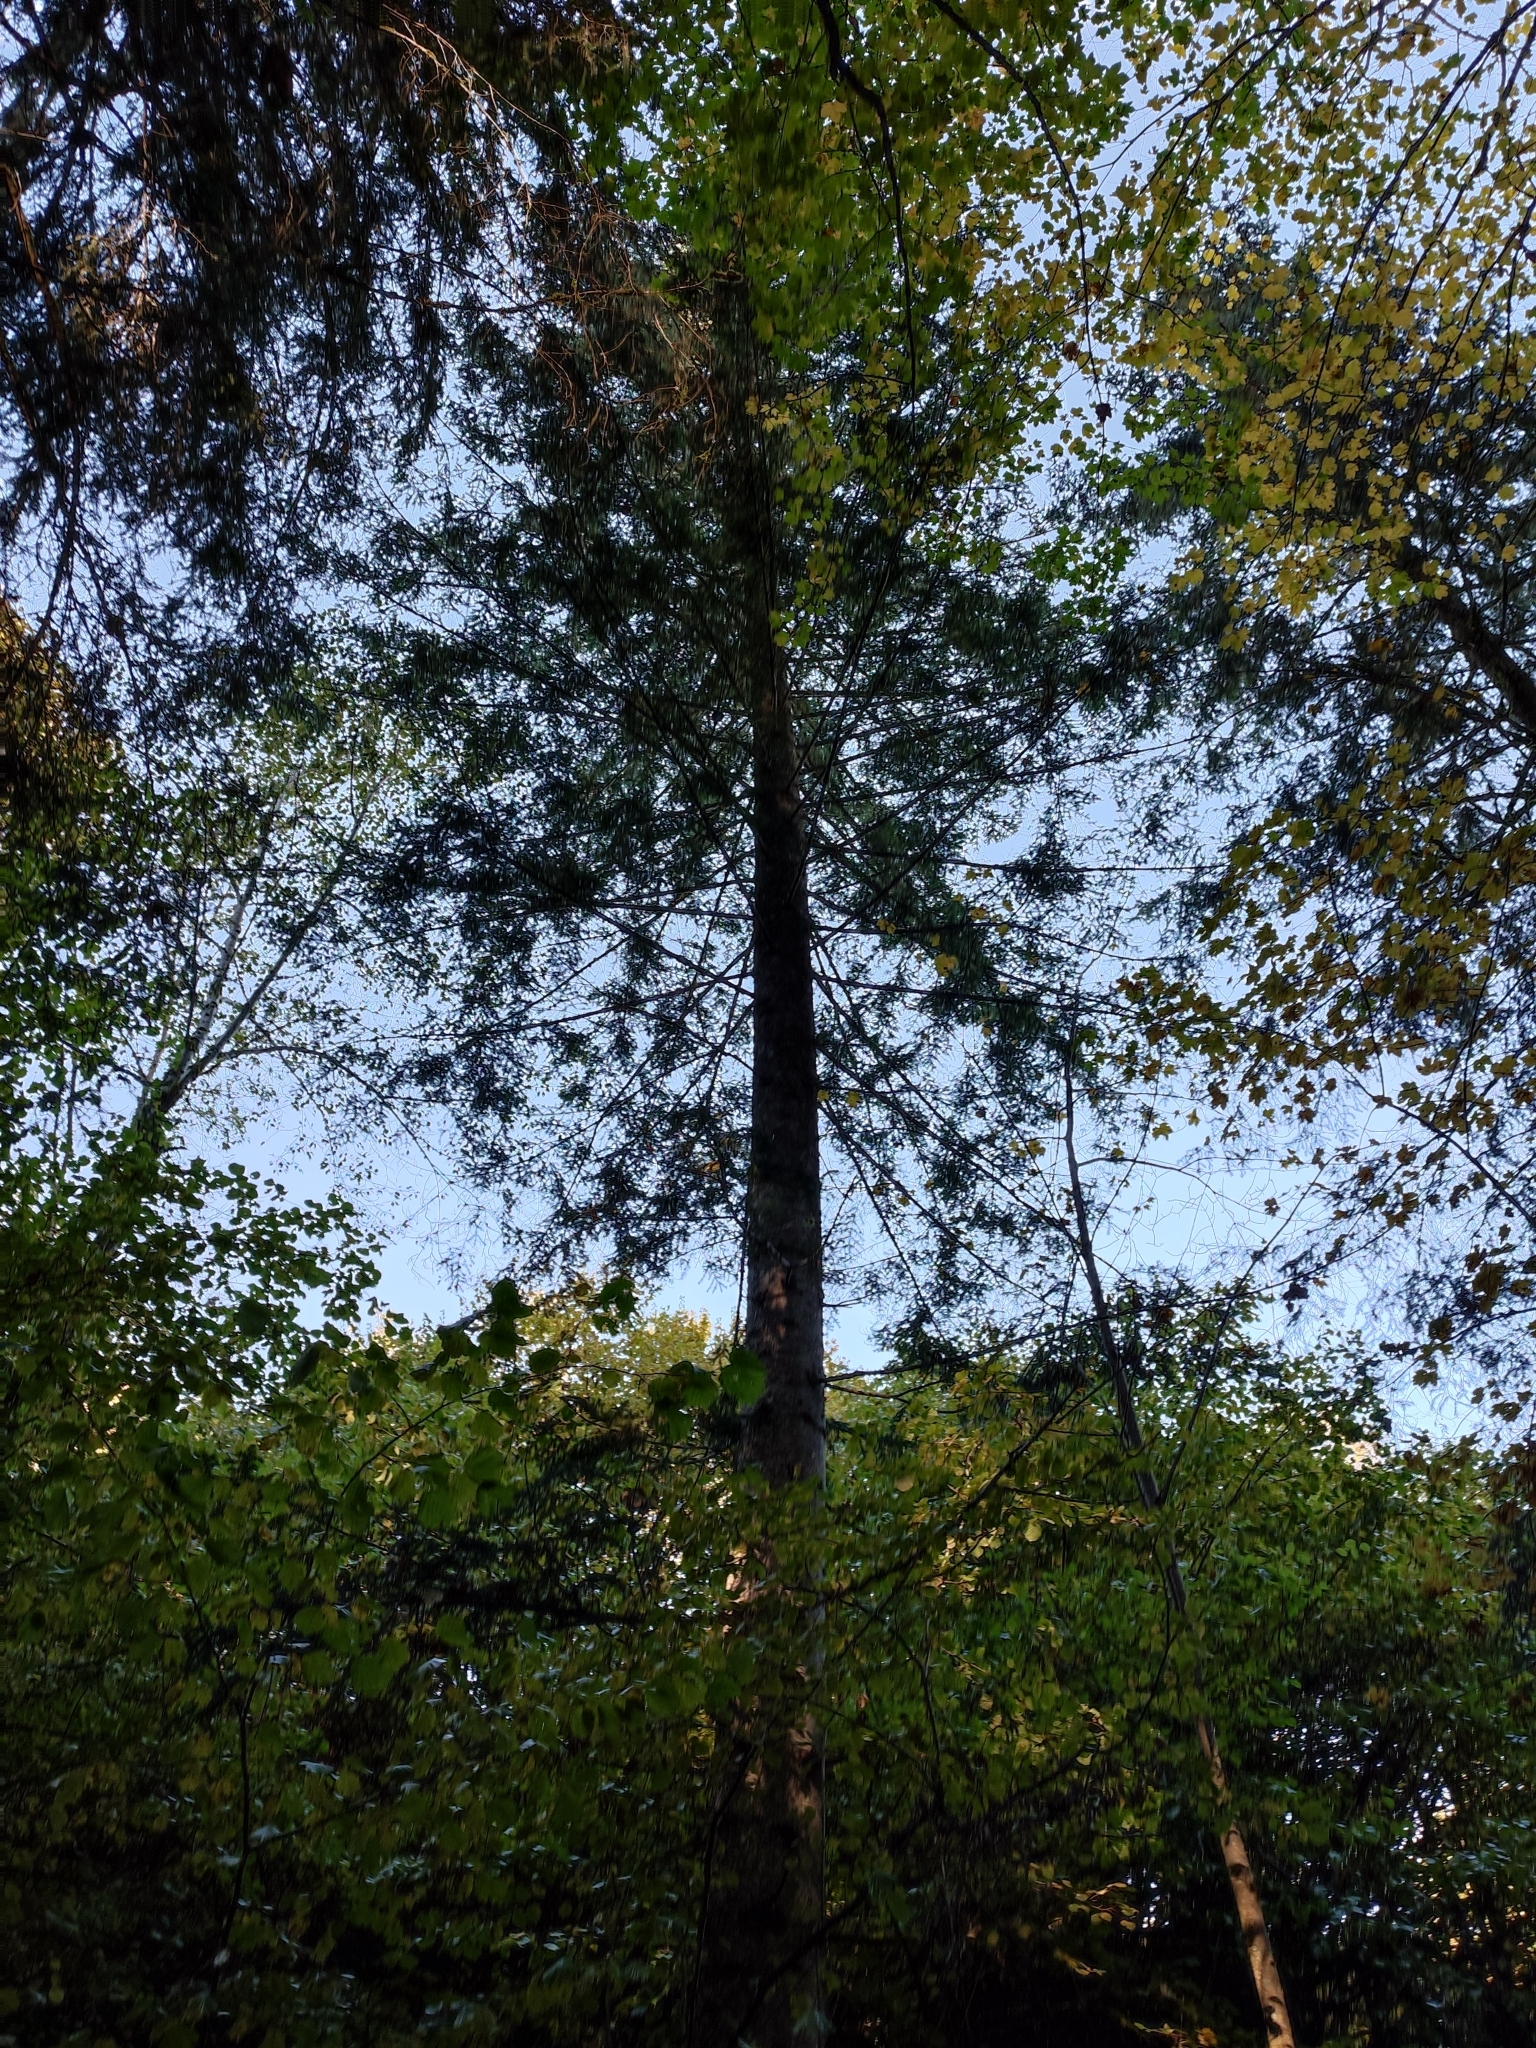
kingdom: Plantae
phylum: Tracheophyta
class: Pinopsida
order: Pinales
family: Pinaceae
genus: Abies
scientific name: Abies alba
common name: Silver fir
